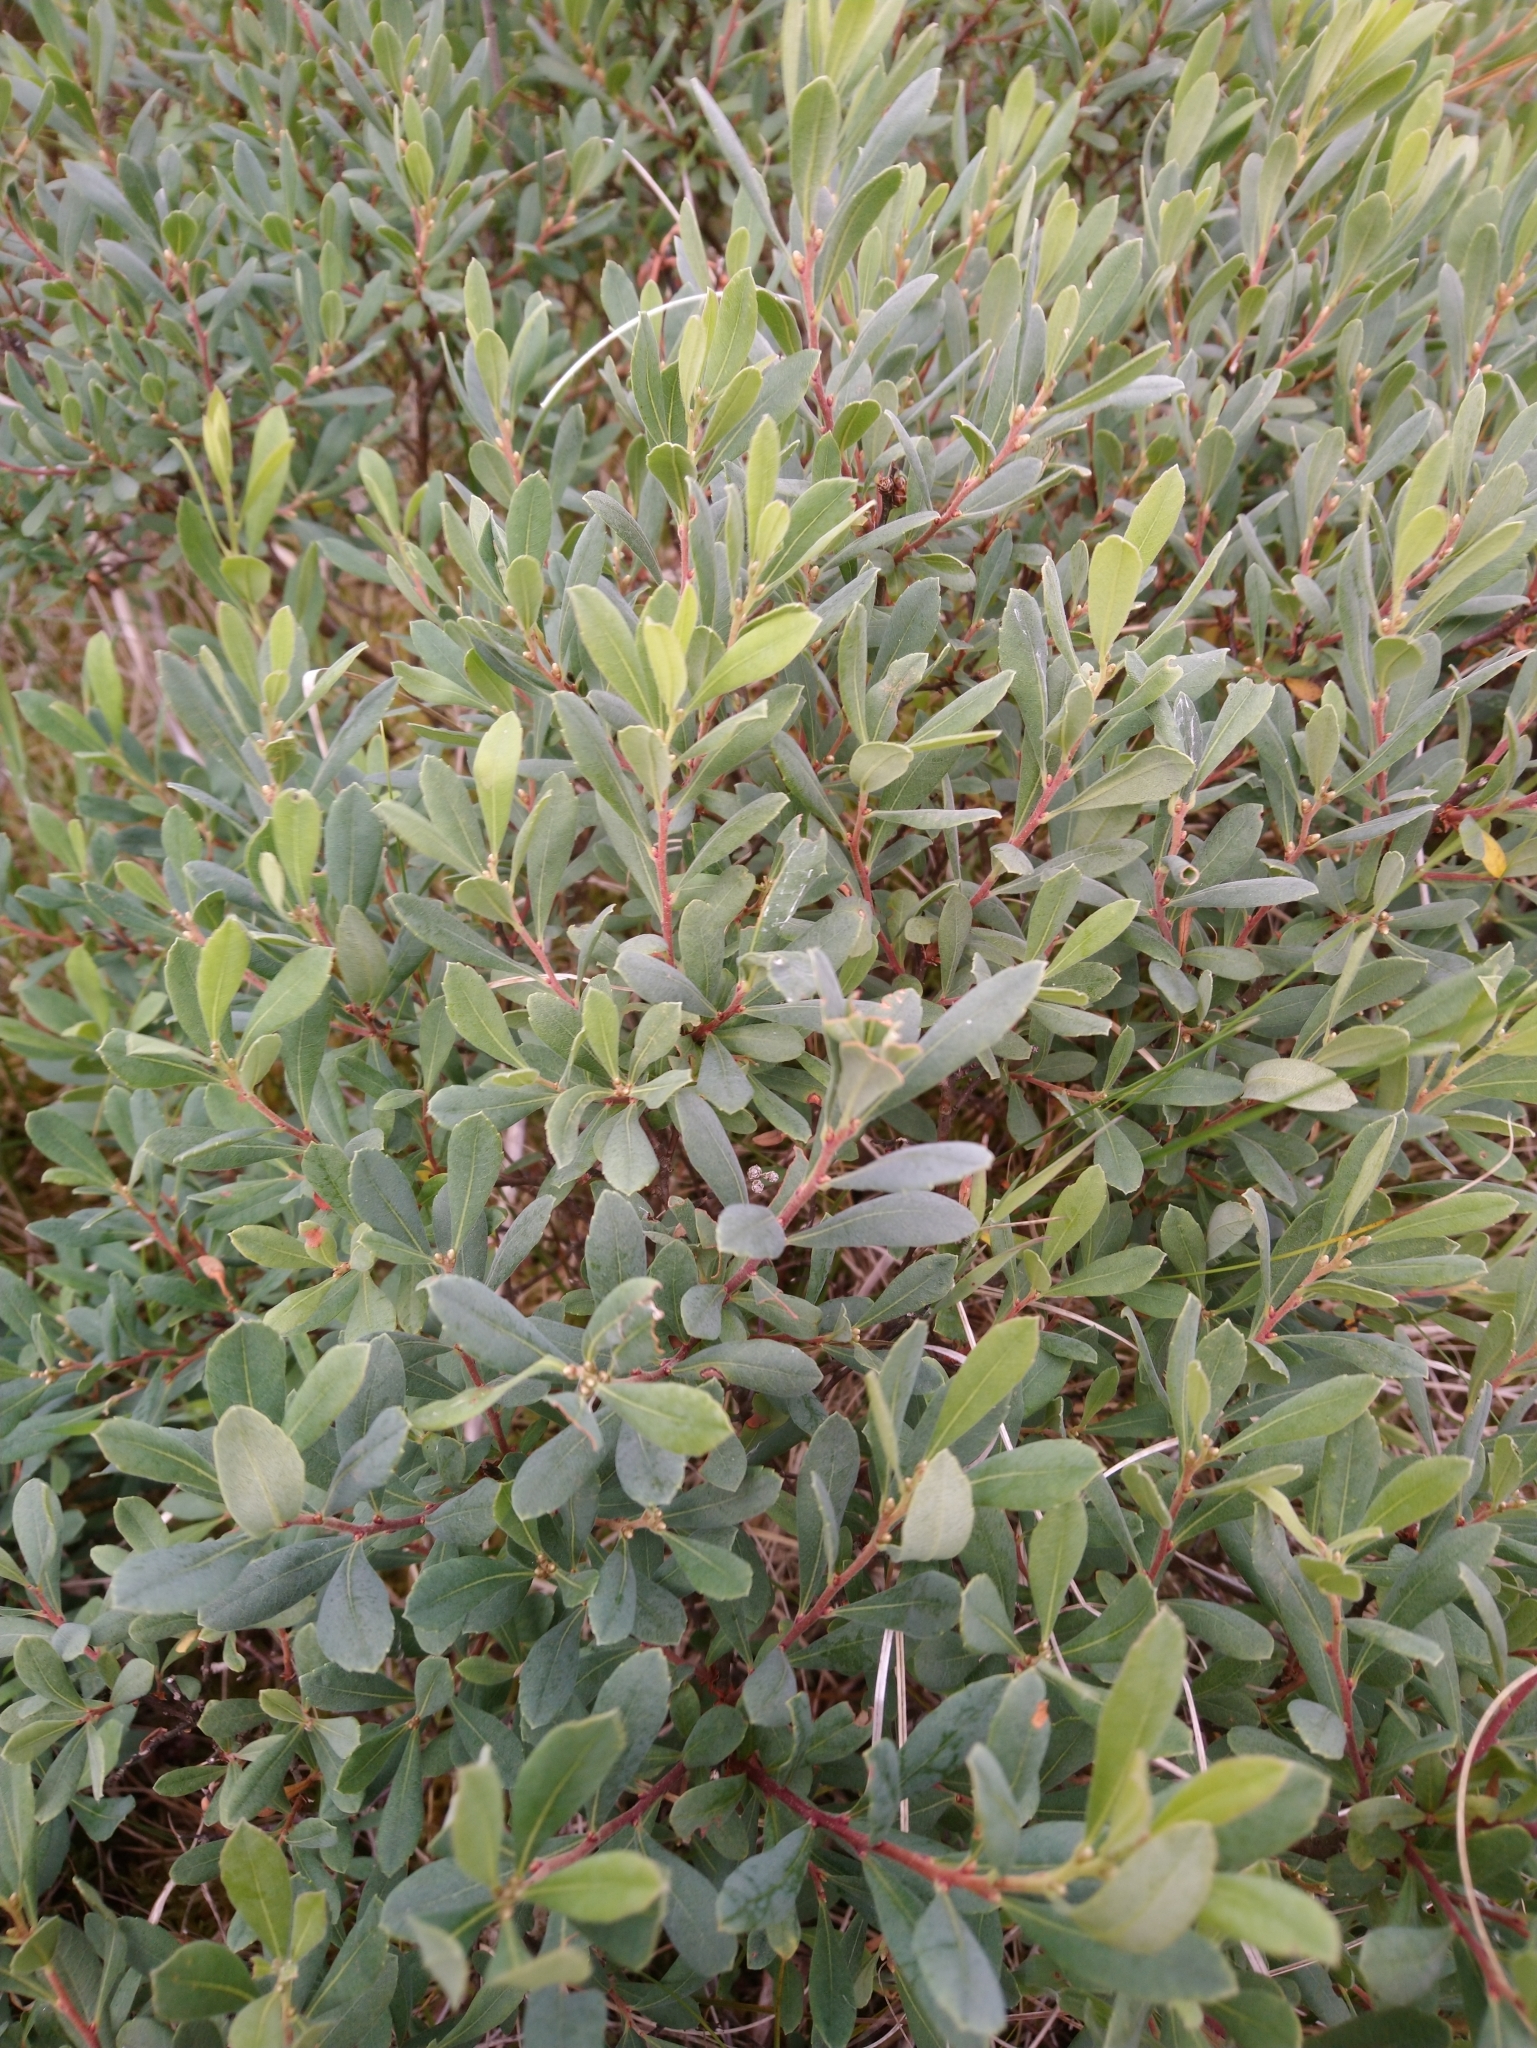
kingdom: Plantae
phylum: Tracheophyta
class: Magnoliopsida
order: Fagales
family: Myricaceae
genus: Myrica
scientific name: Myrica gale
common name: Sweet gale
